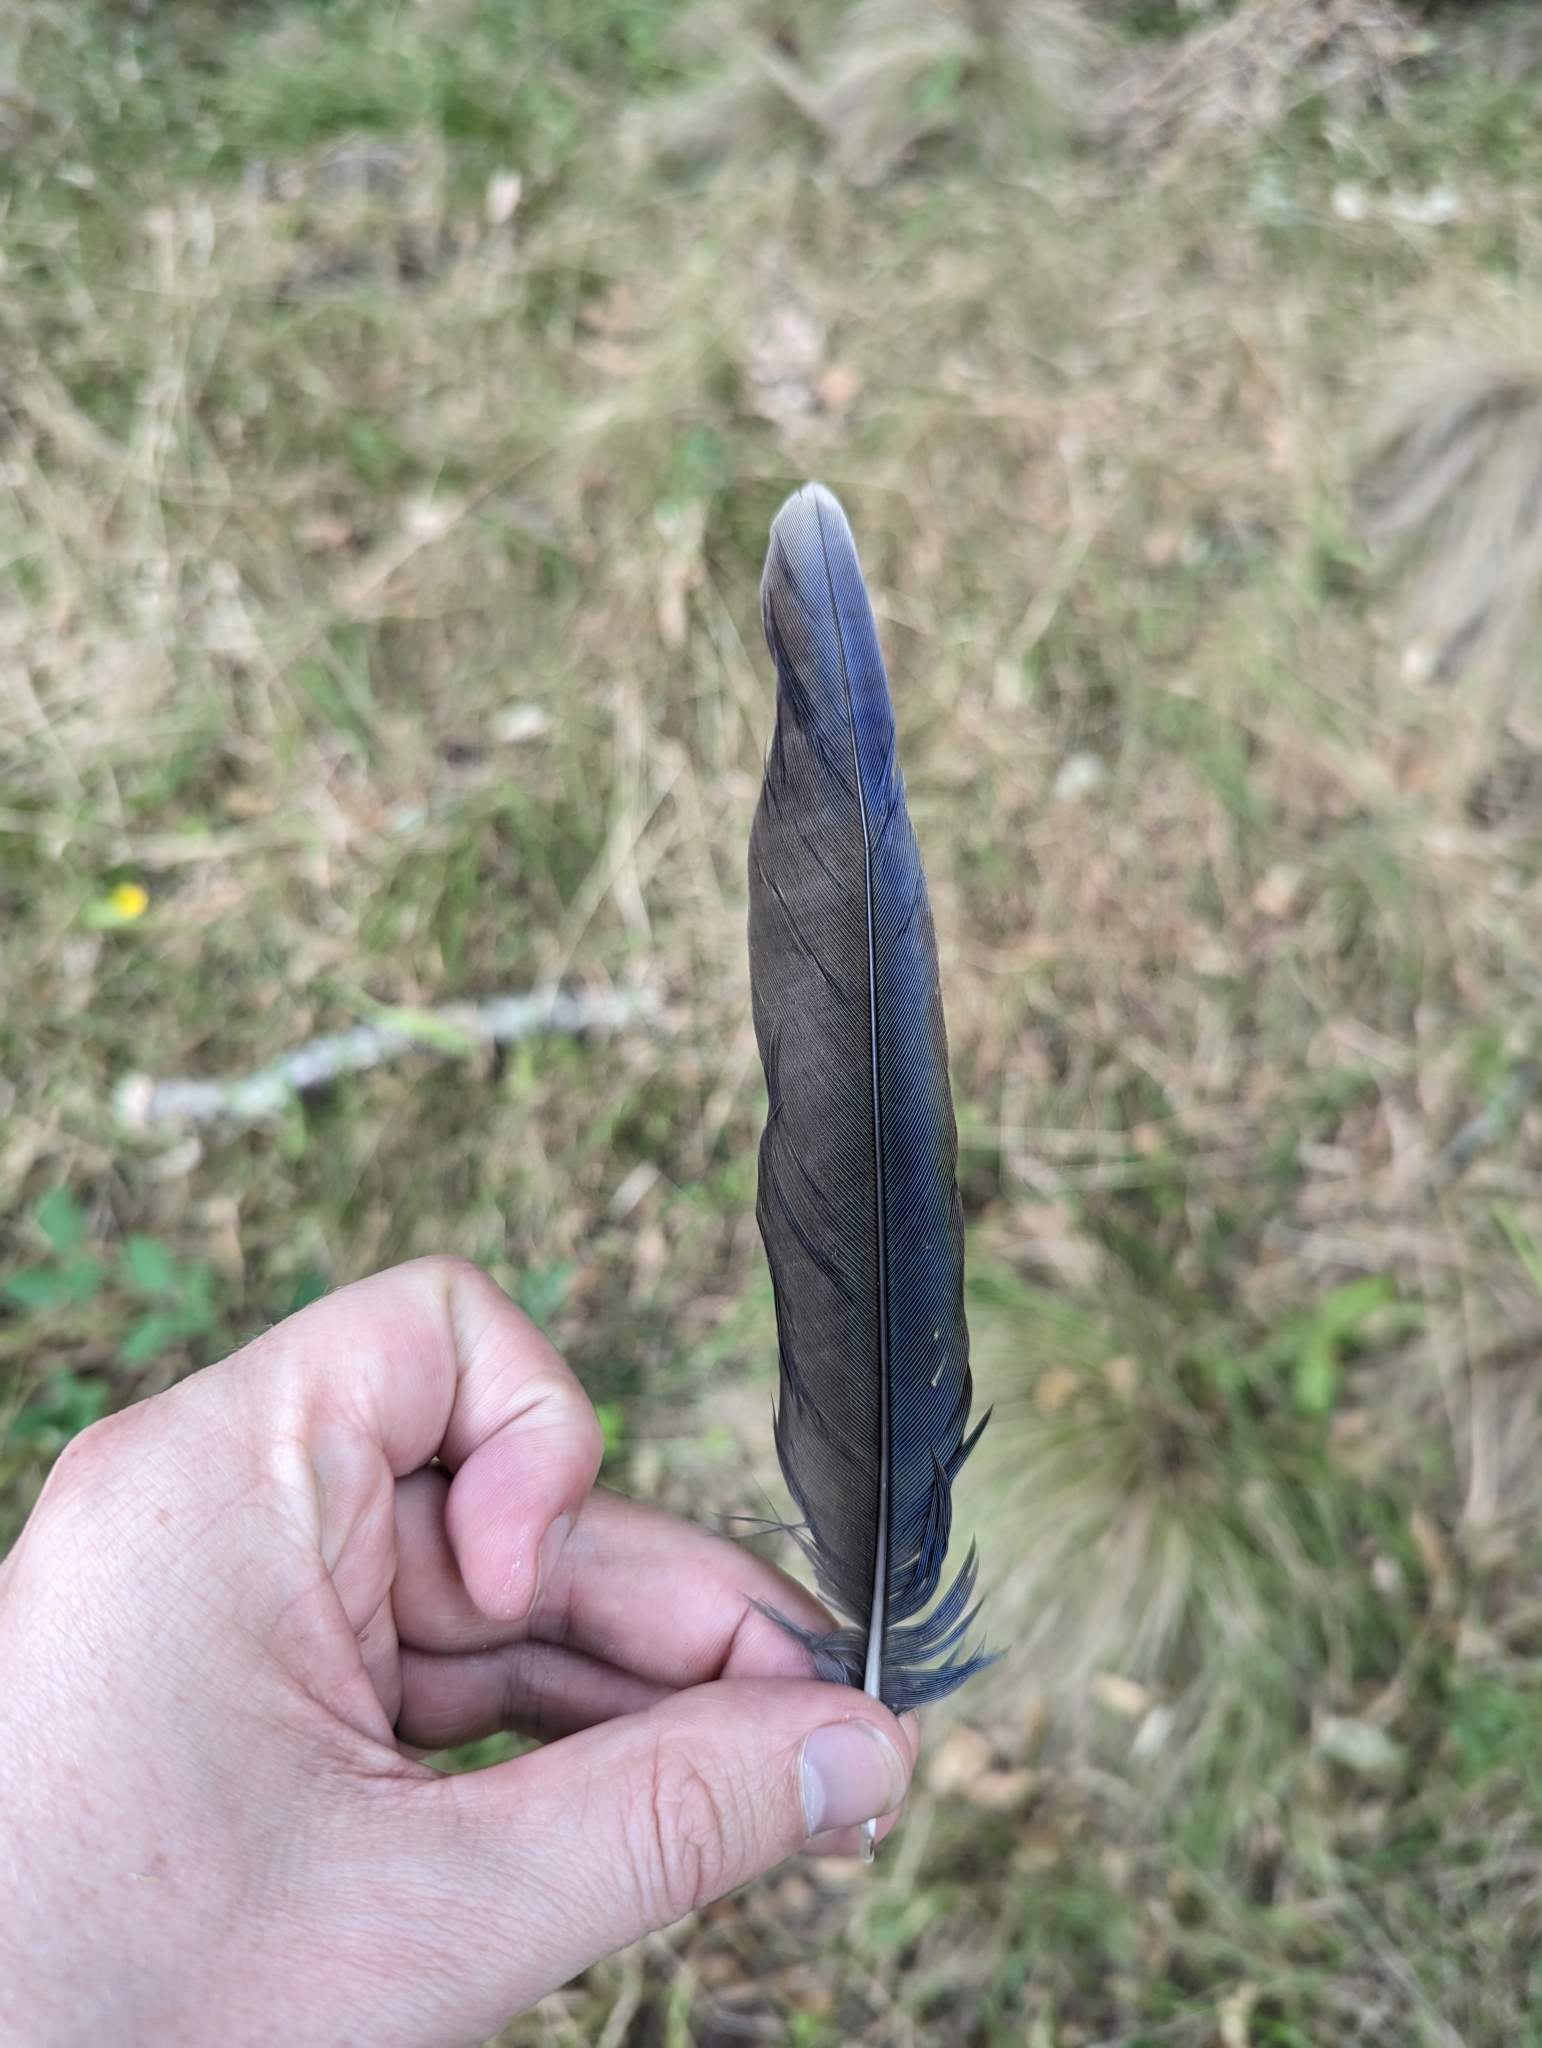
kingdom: Animalia
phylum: Chordata
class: Aves
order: Psittaciformes
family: Psittacidae
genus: Platycercus
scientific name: Platycercus elegans
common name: Crimson rosella
